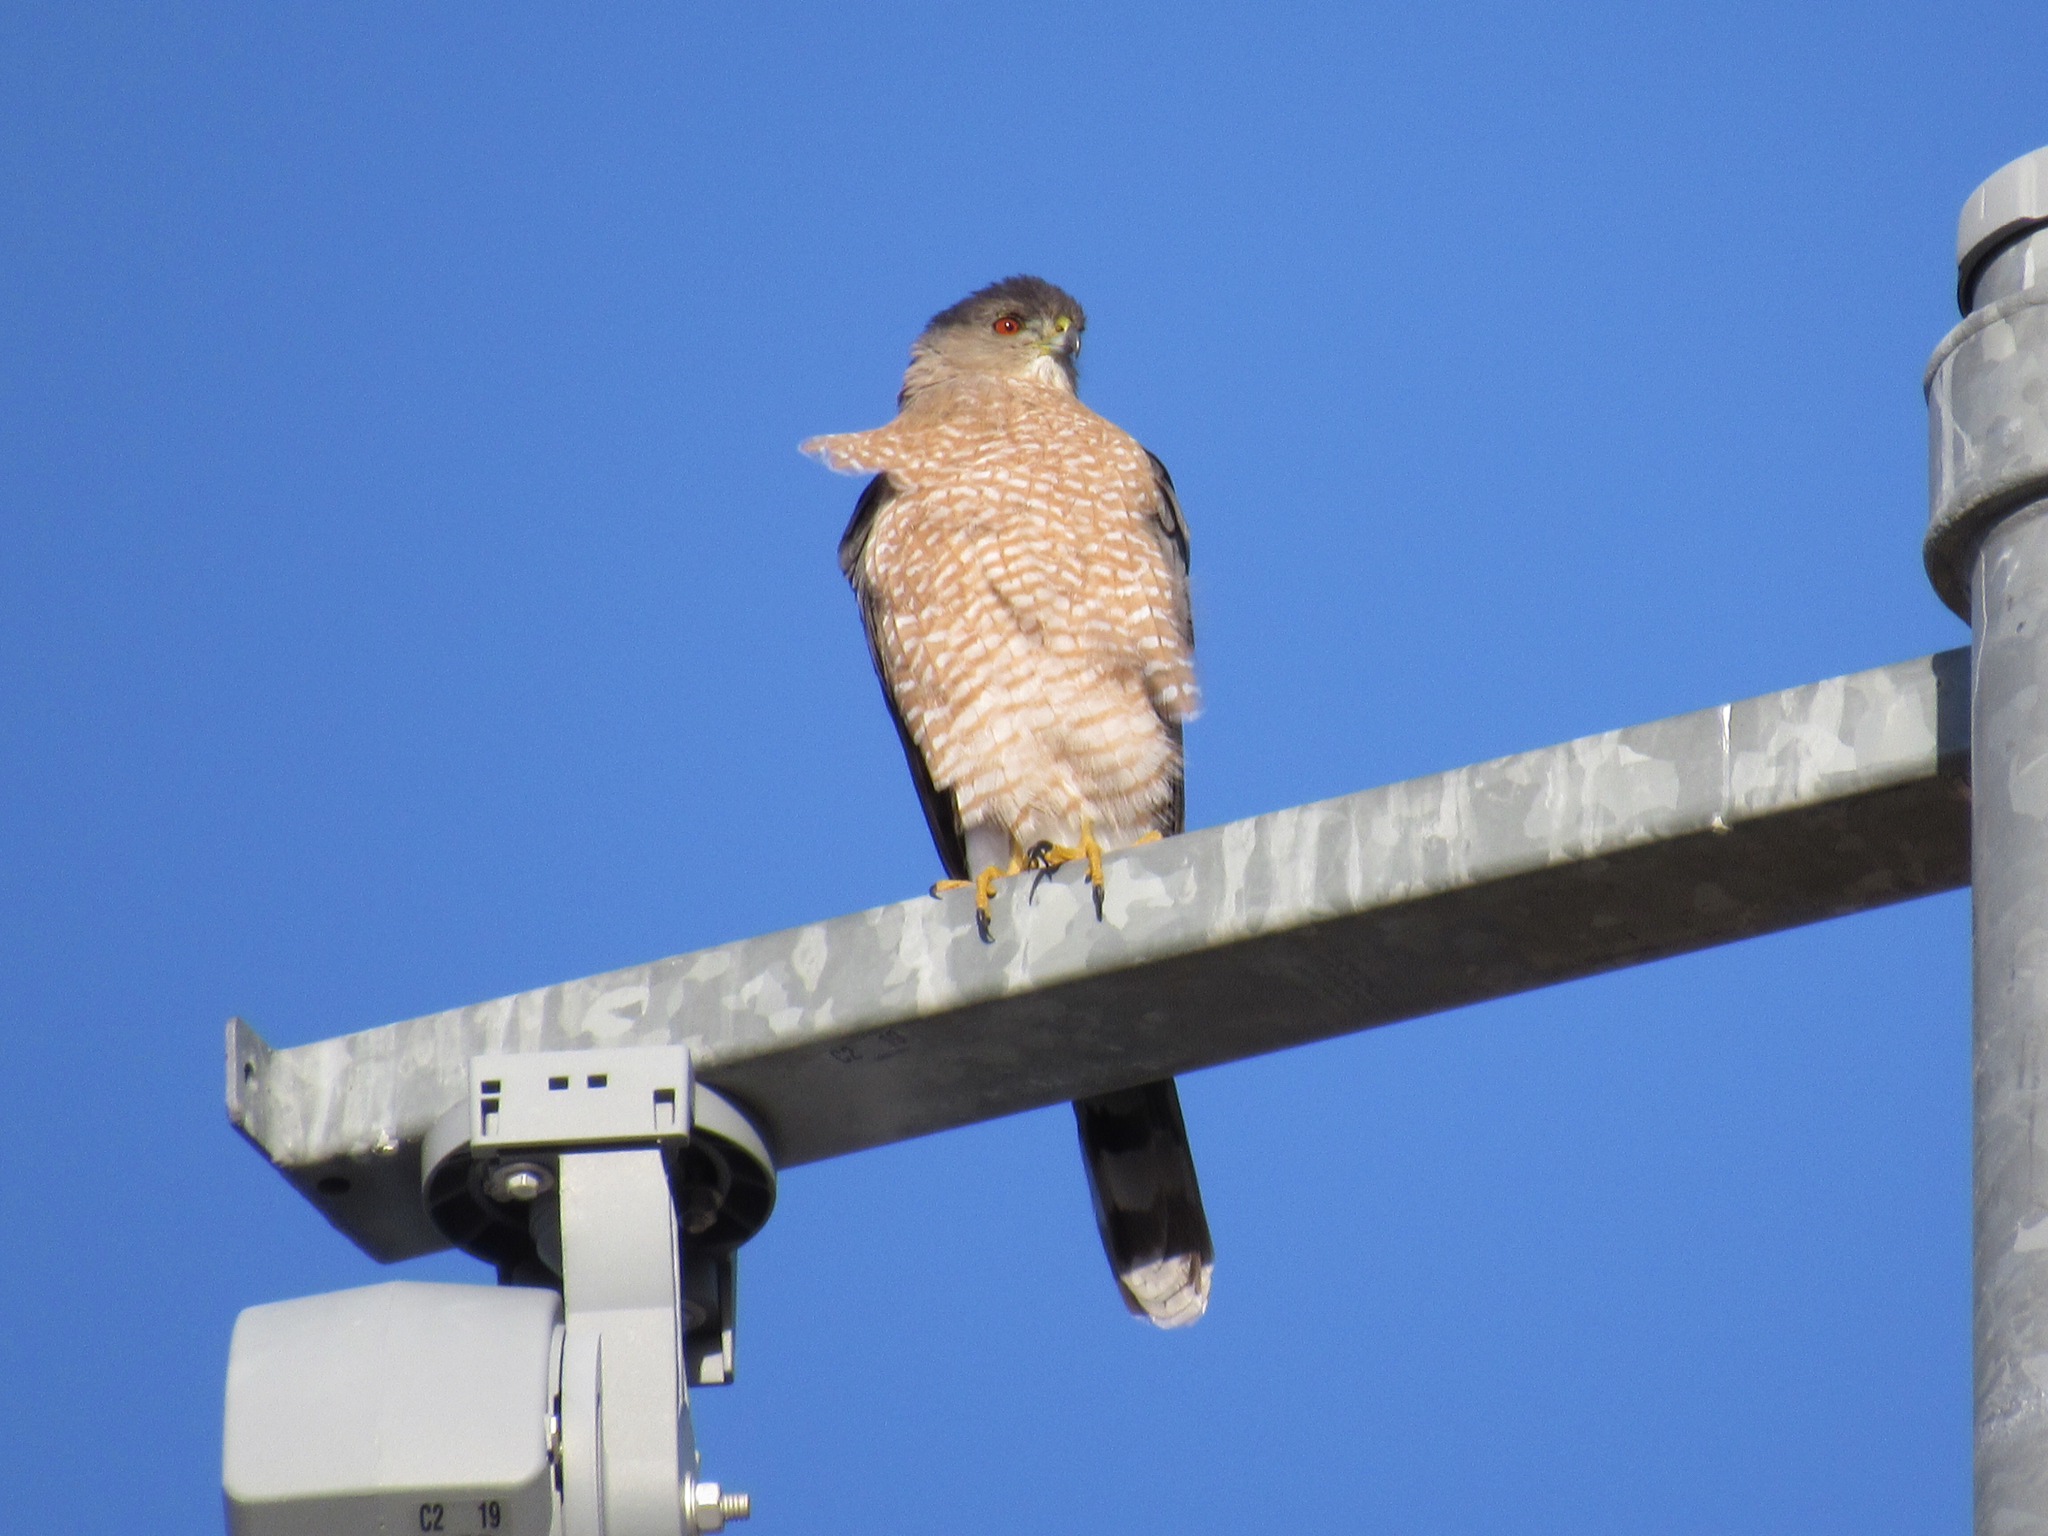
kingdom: Animalia
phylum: Chordata
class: Aves
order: Accipitriformes
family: Accipitridae
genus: Accipiter
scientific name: Accipiter cooperii
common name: Cooper's hawk
